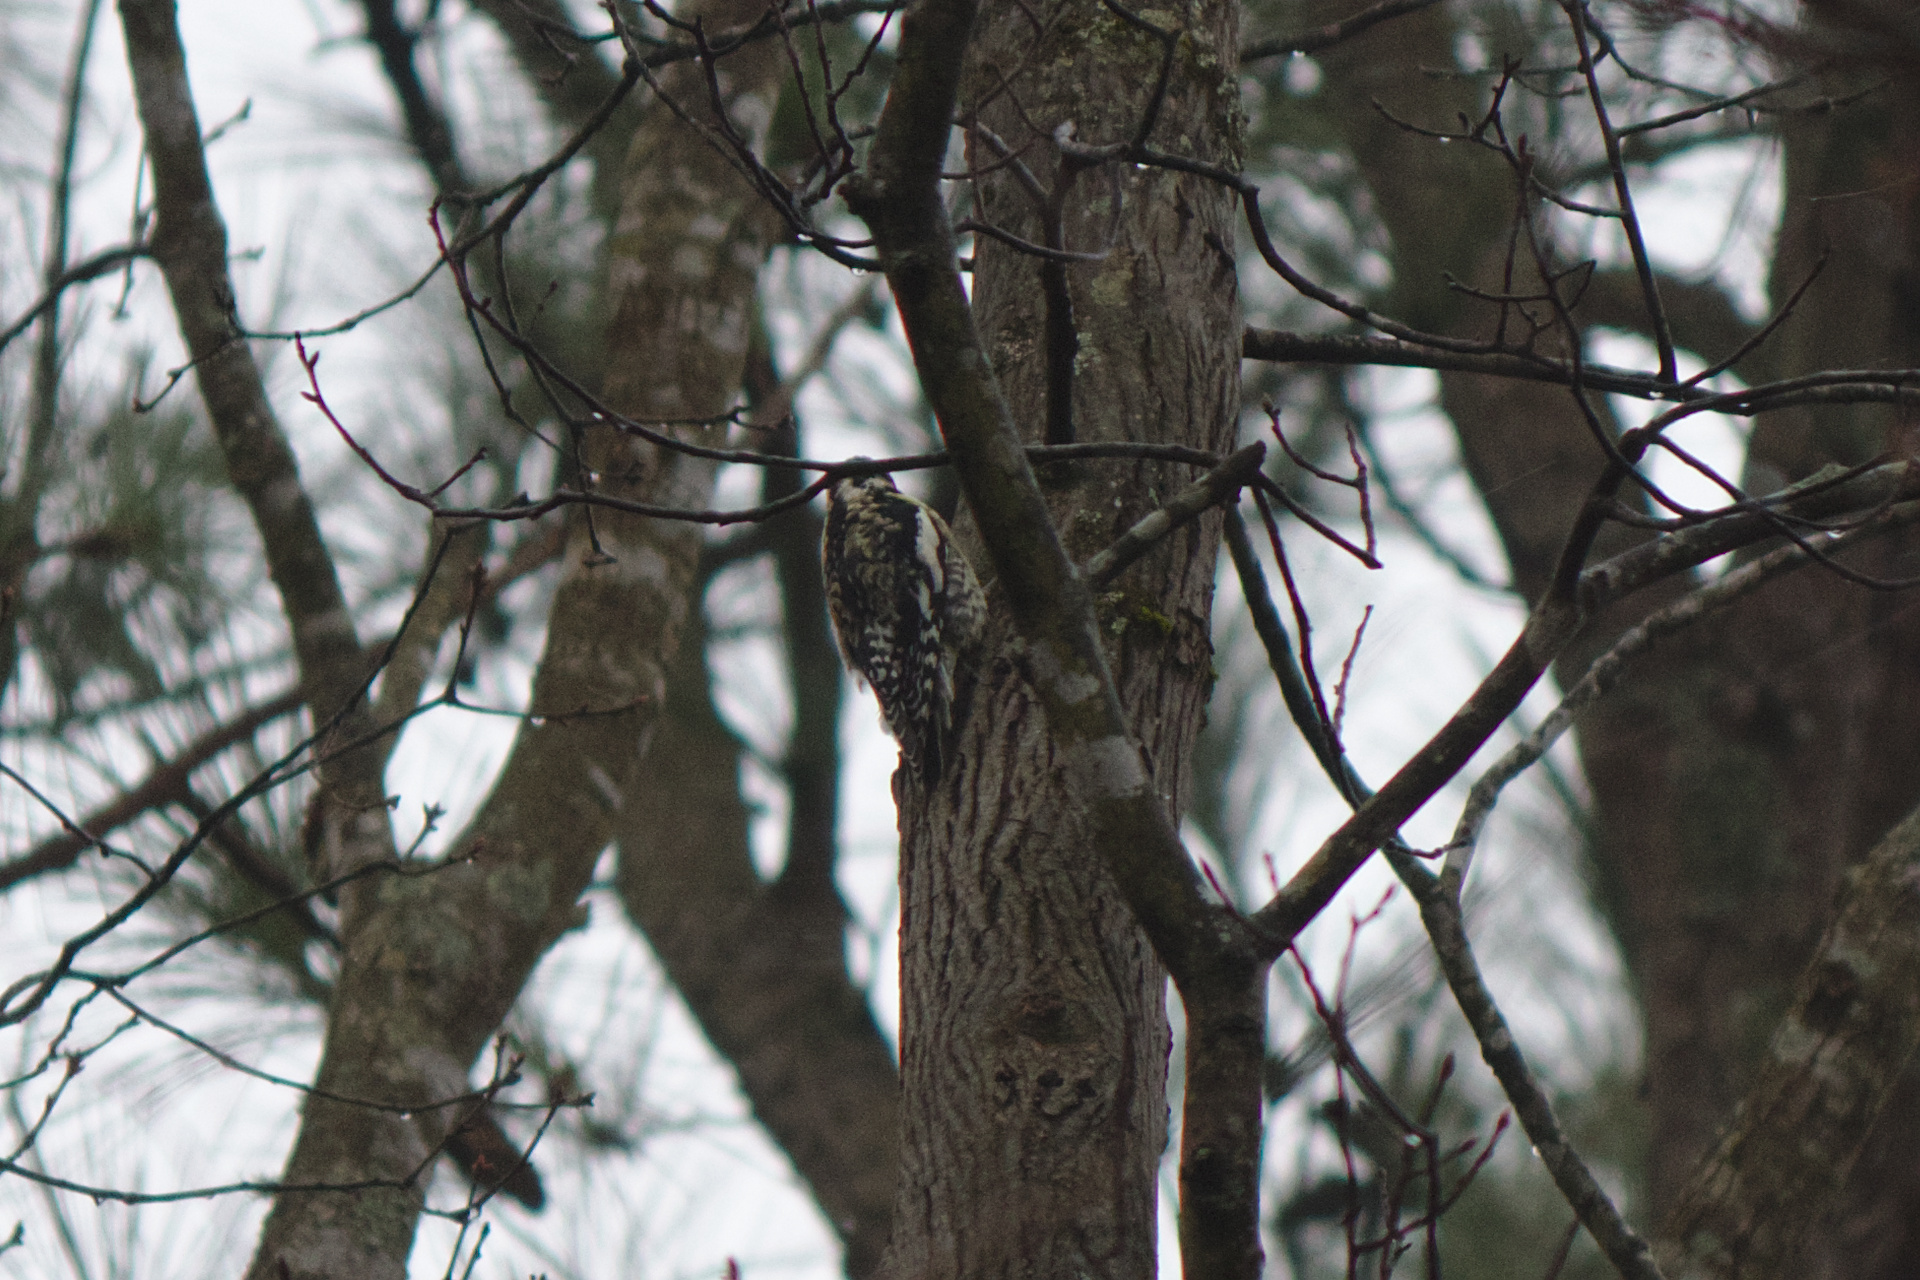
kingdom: Animalia
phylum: Chordata
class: Aves
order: Piciformes
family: Picidae
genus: Sphyrapicus
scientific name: Sphyrapicus varius
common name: Yellow-bellied sapsucker
